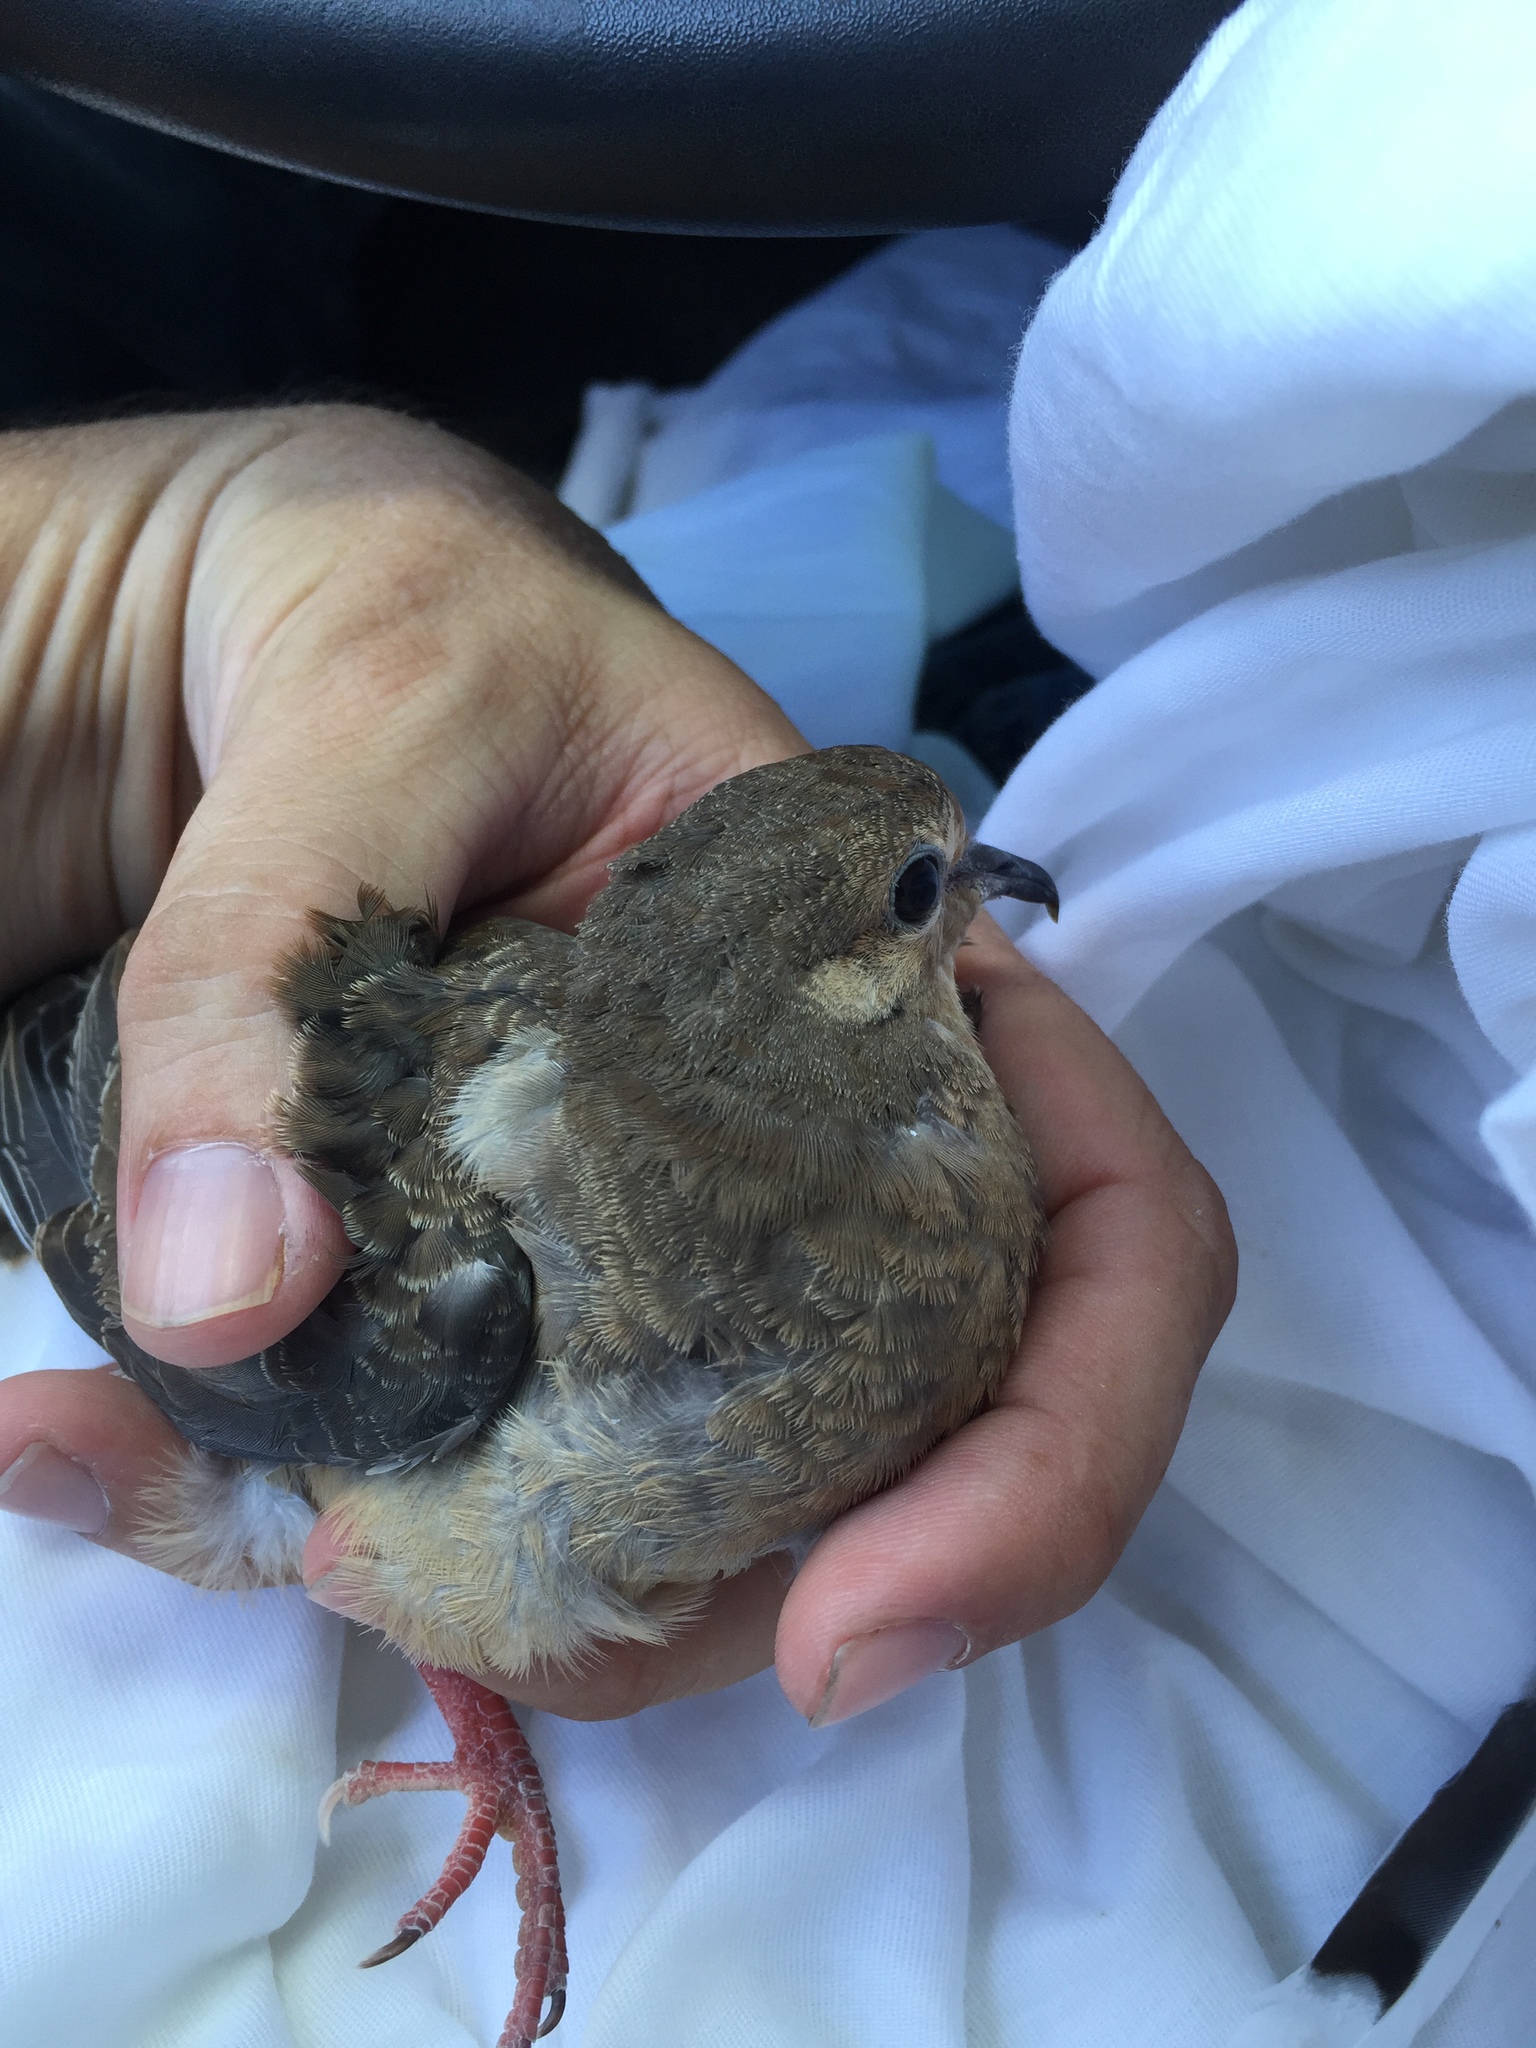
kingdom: Animalia
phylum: Chordata
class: Aves
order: Columbiformes
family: Columbidae
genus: Zenaida
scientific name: Zenaida macroura
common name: Mourning dove
